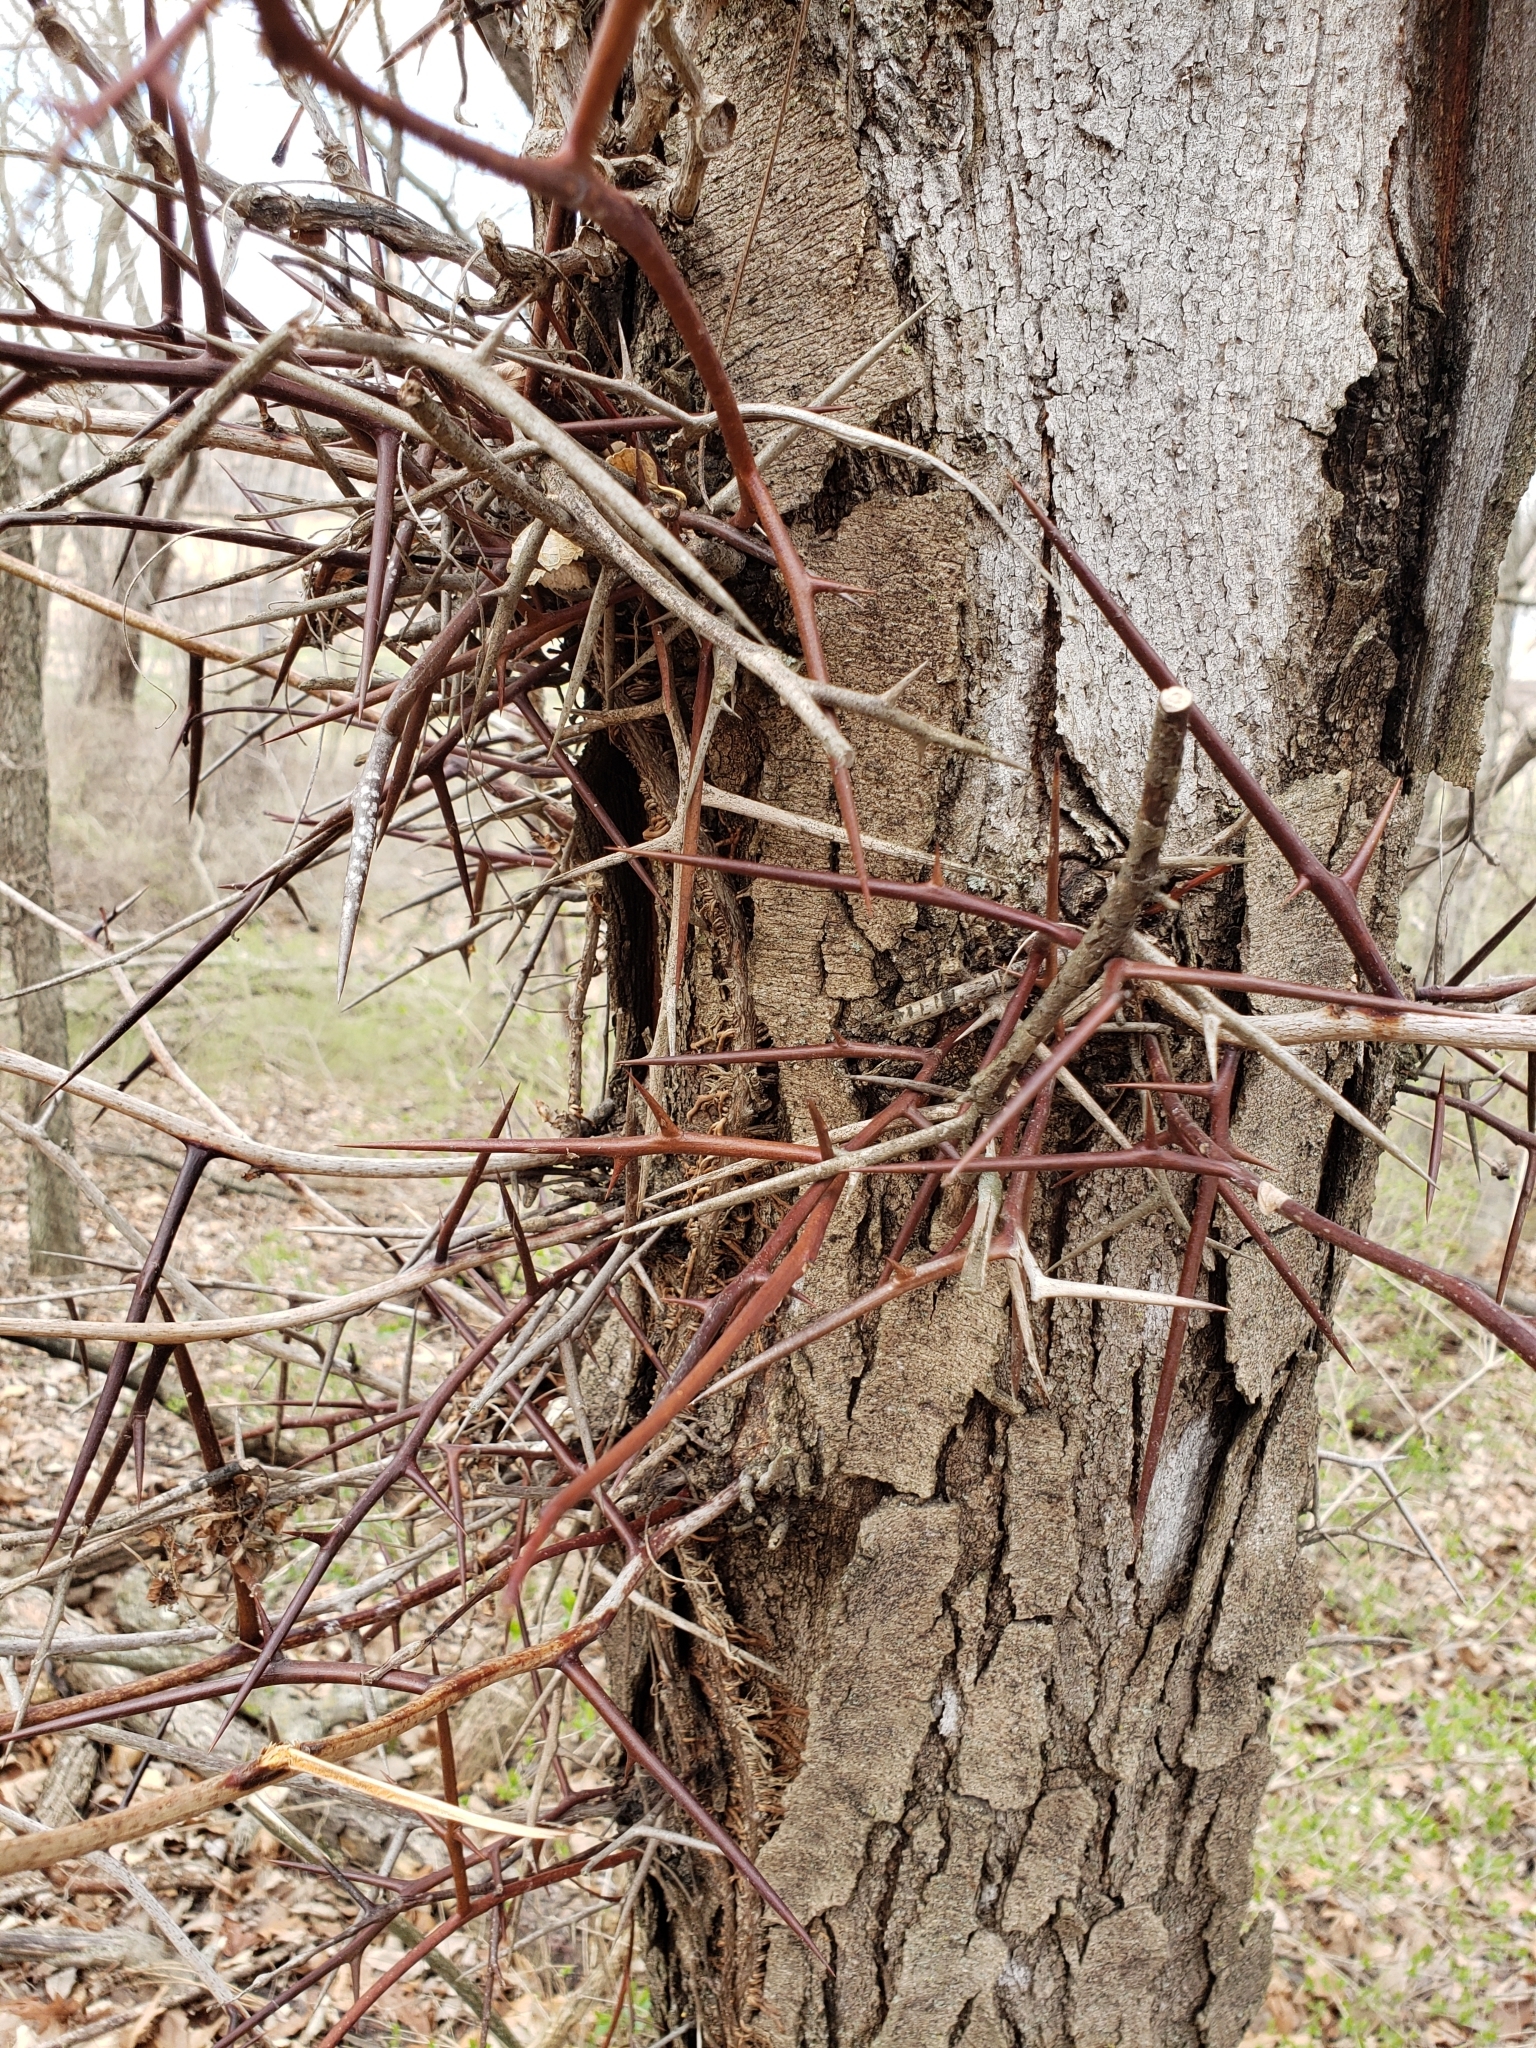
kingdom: Plantae
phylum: Tracheophyta
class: Magnoliopsida
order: Fabales
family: Fabaceae
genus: Gleditsia
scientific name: Gleditsia triacanthos
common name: Common honeylocust
